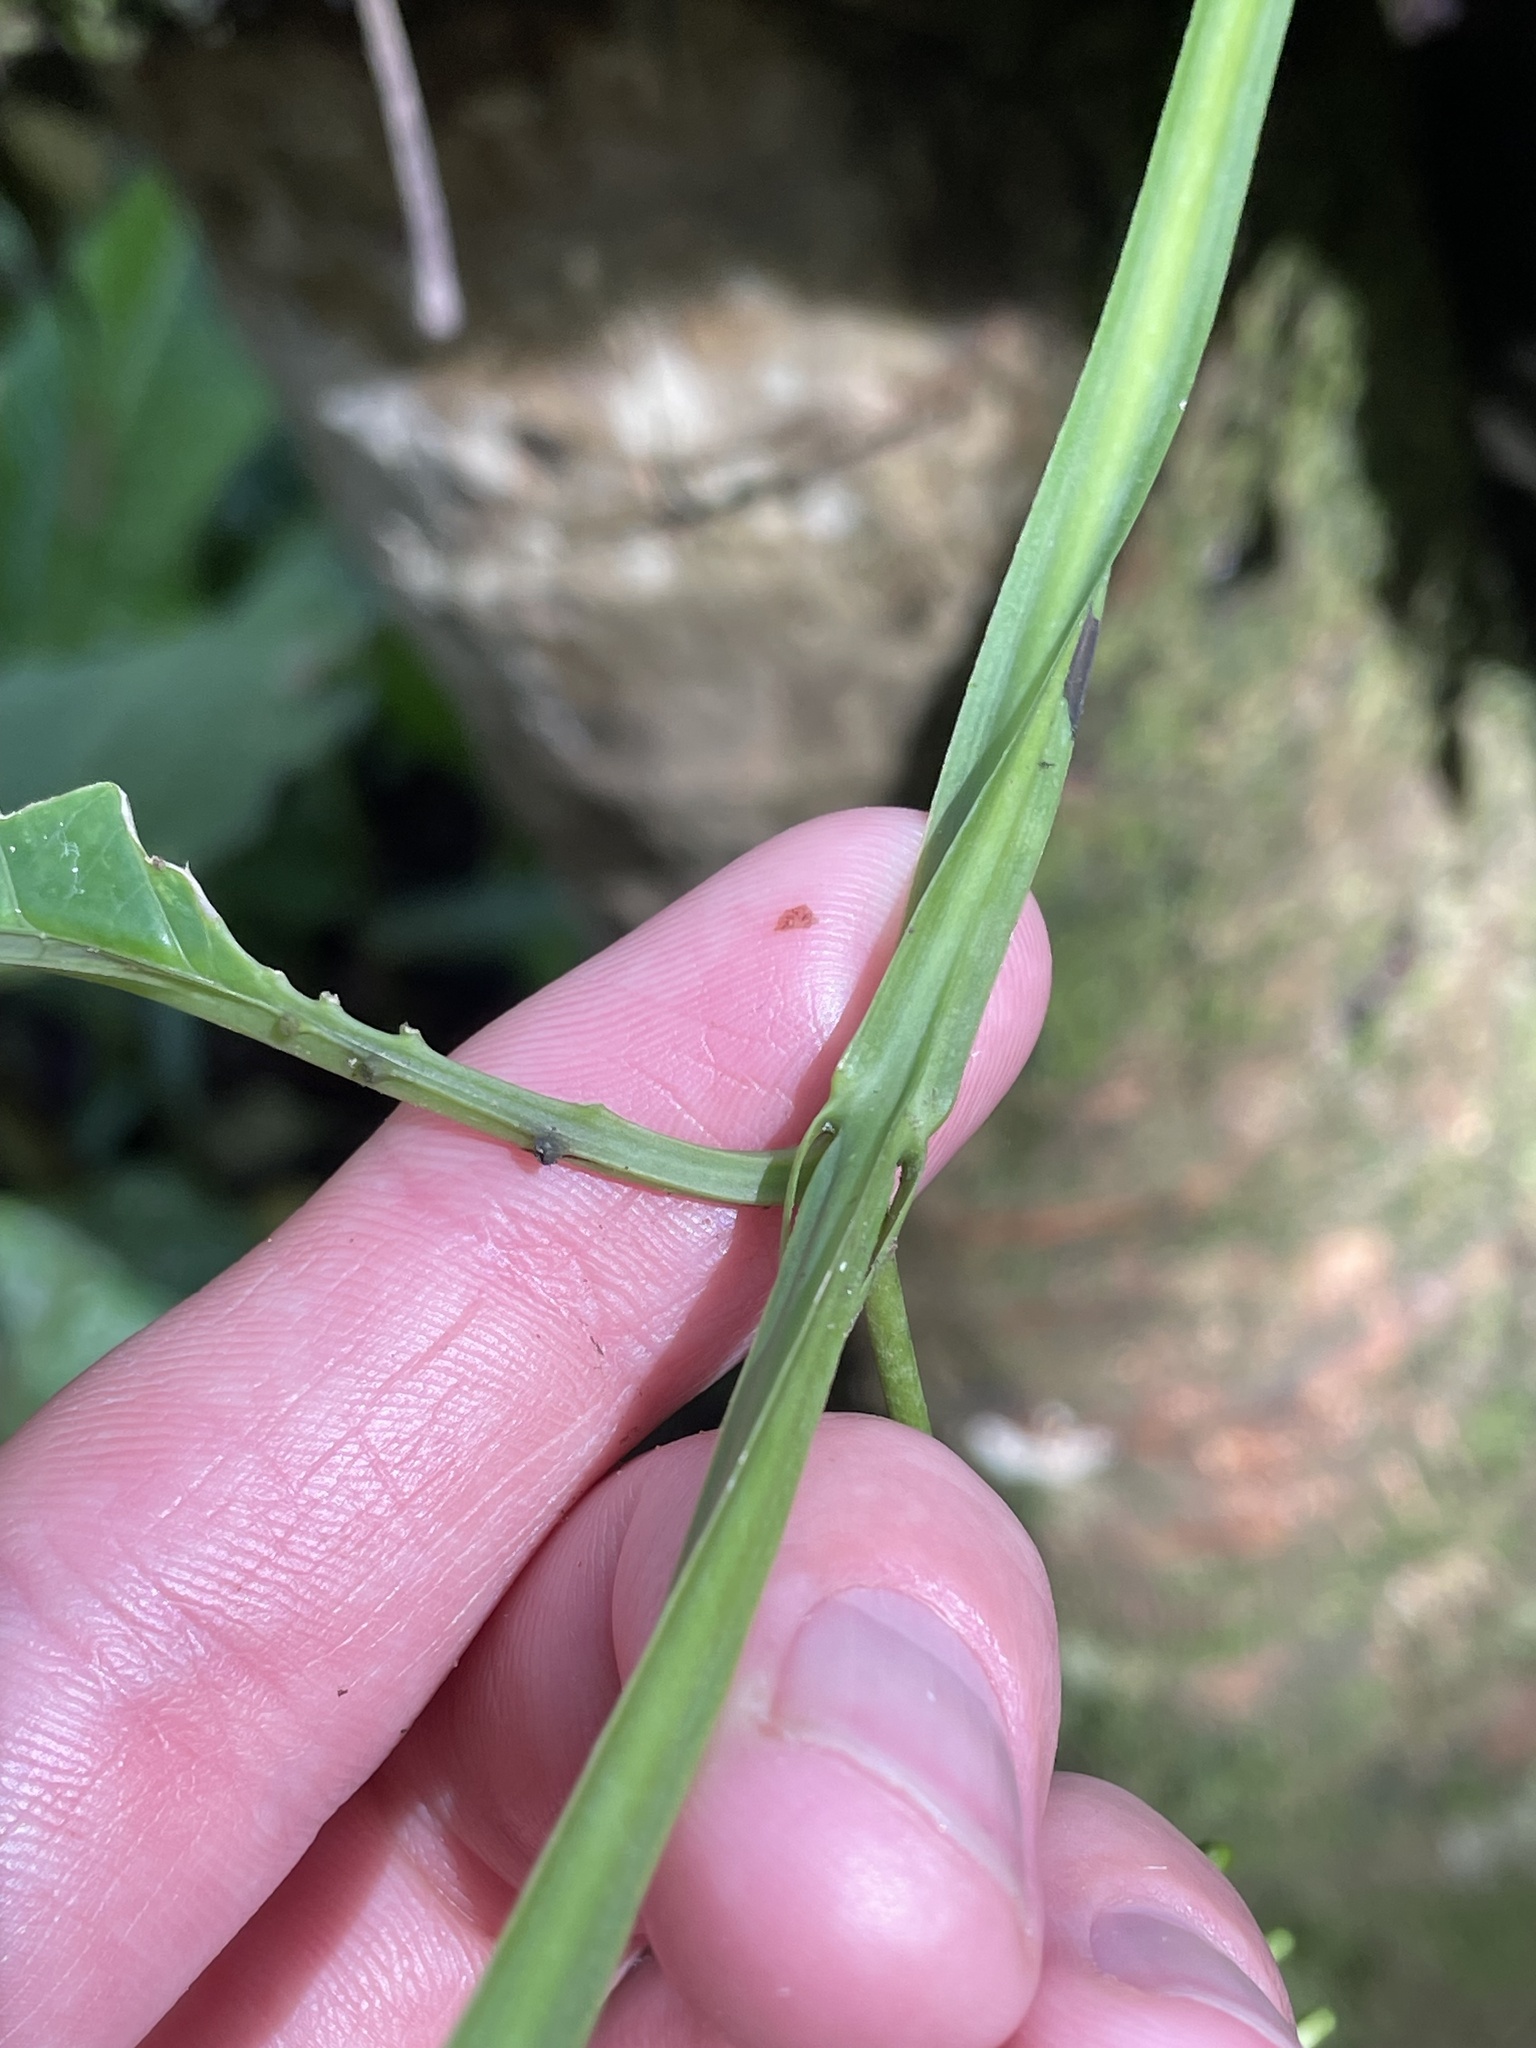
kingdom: Plantae
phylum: Tracheophyta
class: Magnoliopsida
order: Malpighiales
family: Passifloraceae
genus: Passiflora
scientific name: Passiflora quadrangularis
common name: Giant granadilla
